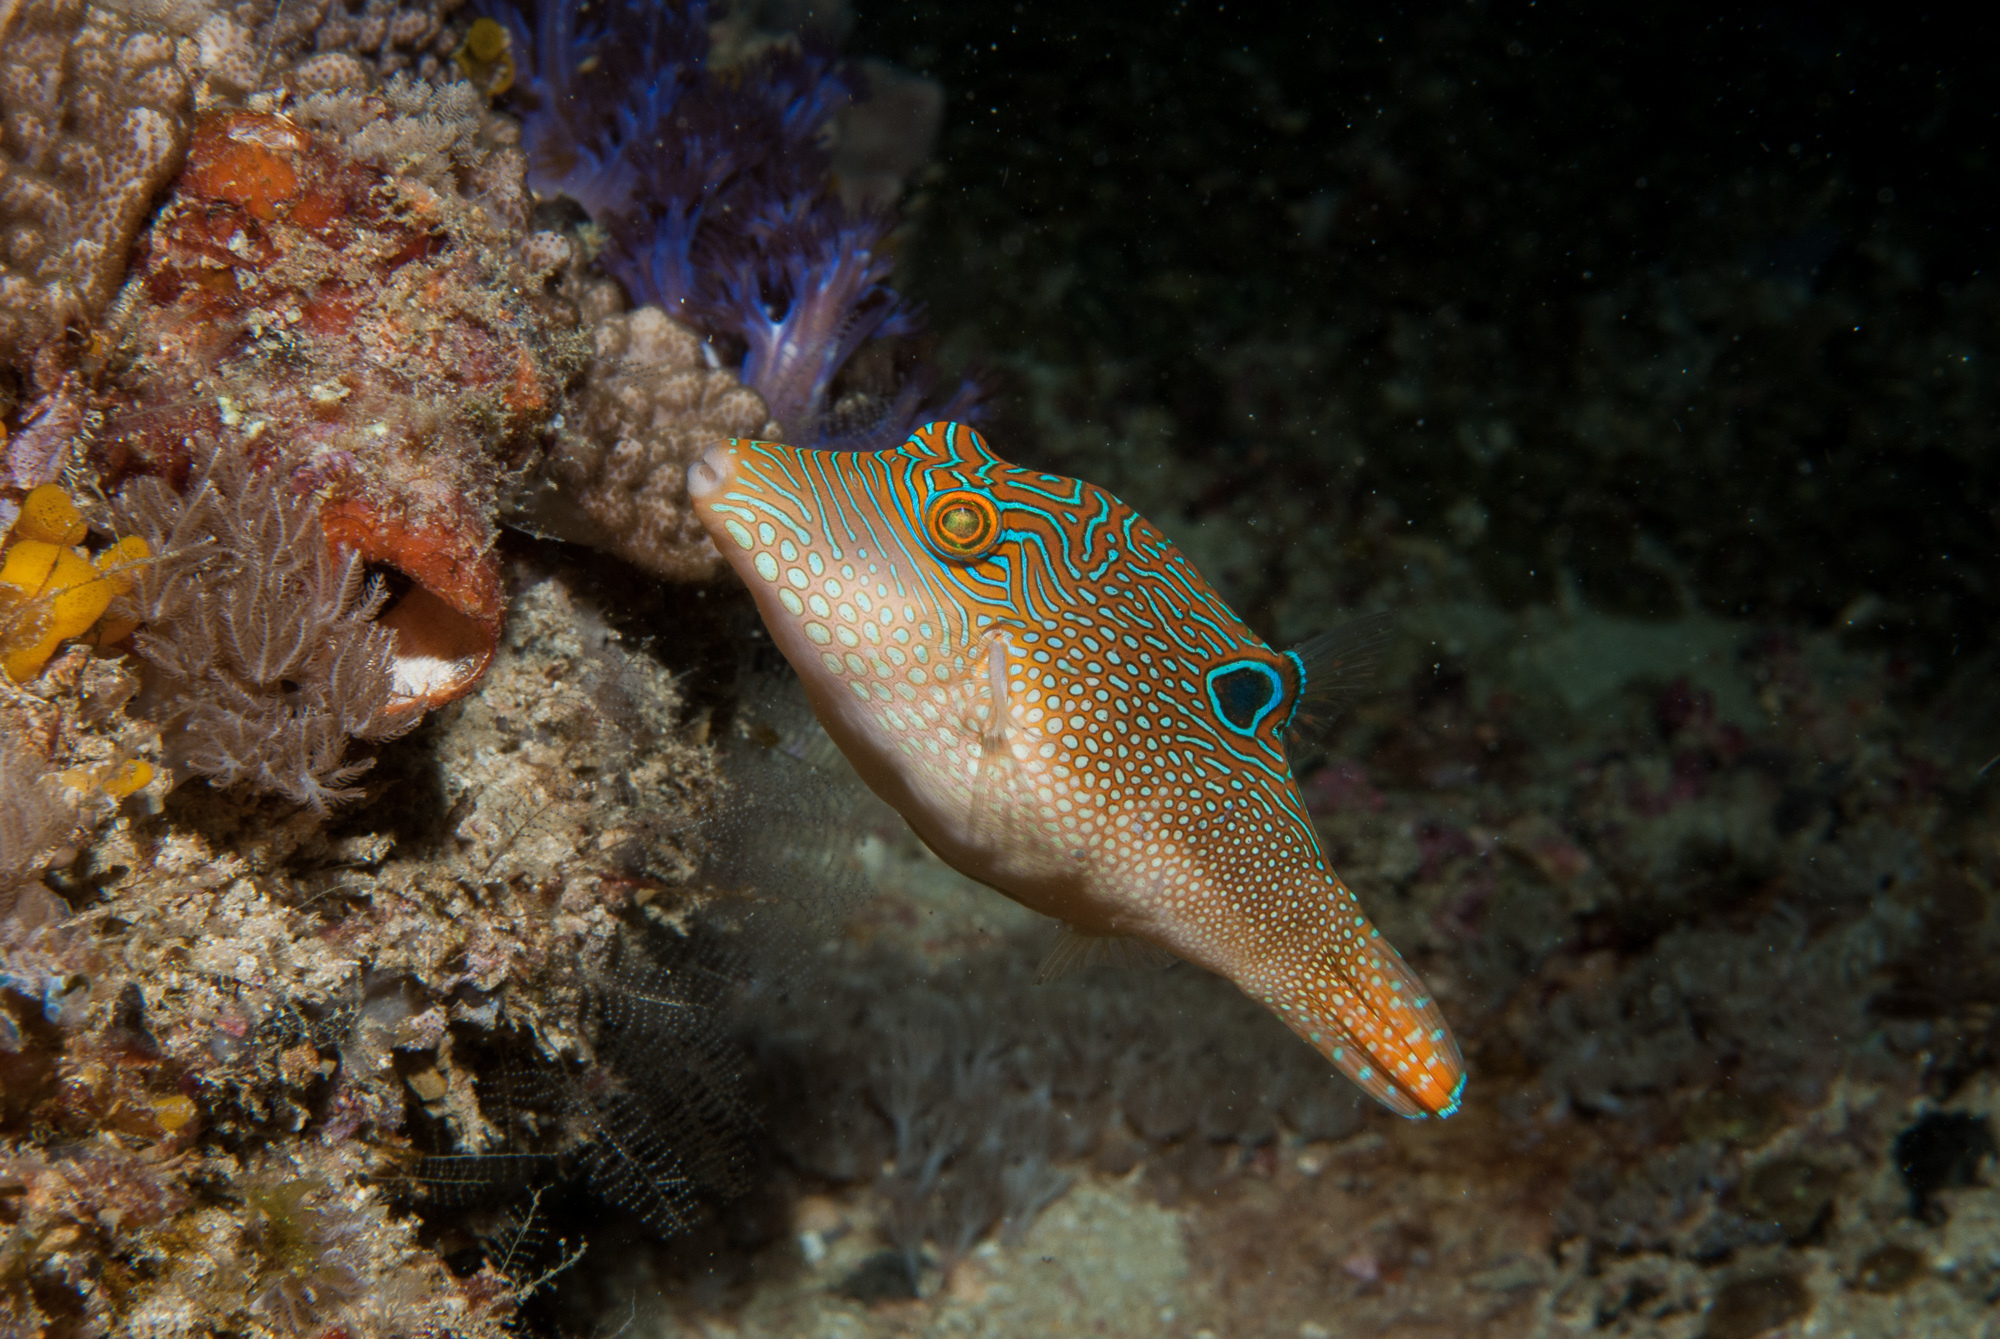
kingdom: Animalia
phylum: Chordata
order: Tetraodontiformes
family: Tetraodontidae
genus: Canthigaster
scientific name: Canthigaster petersii
